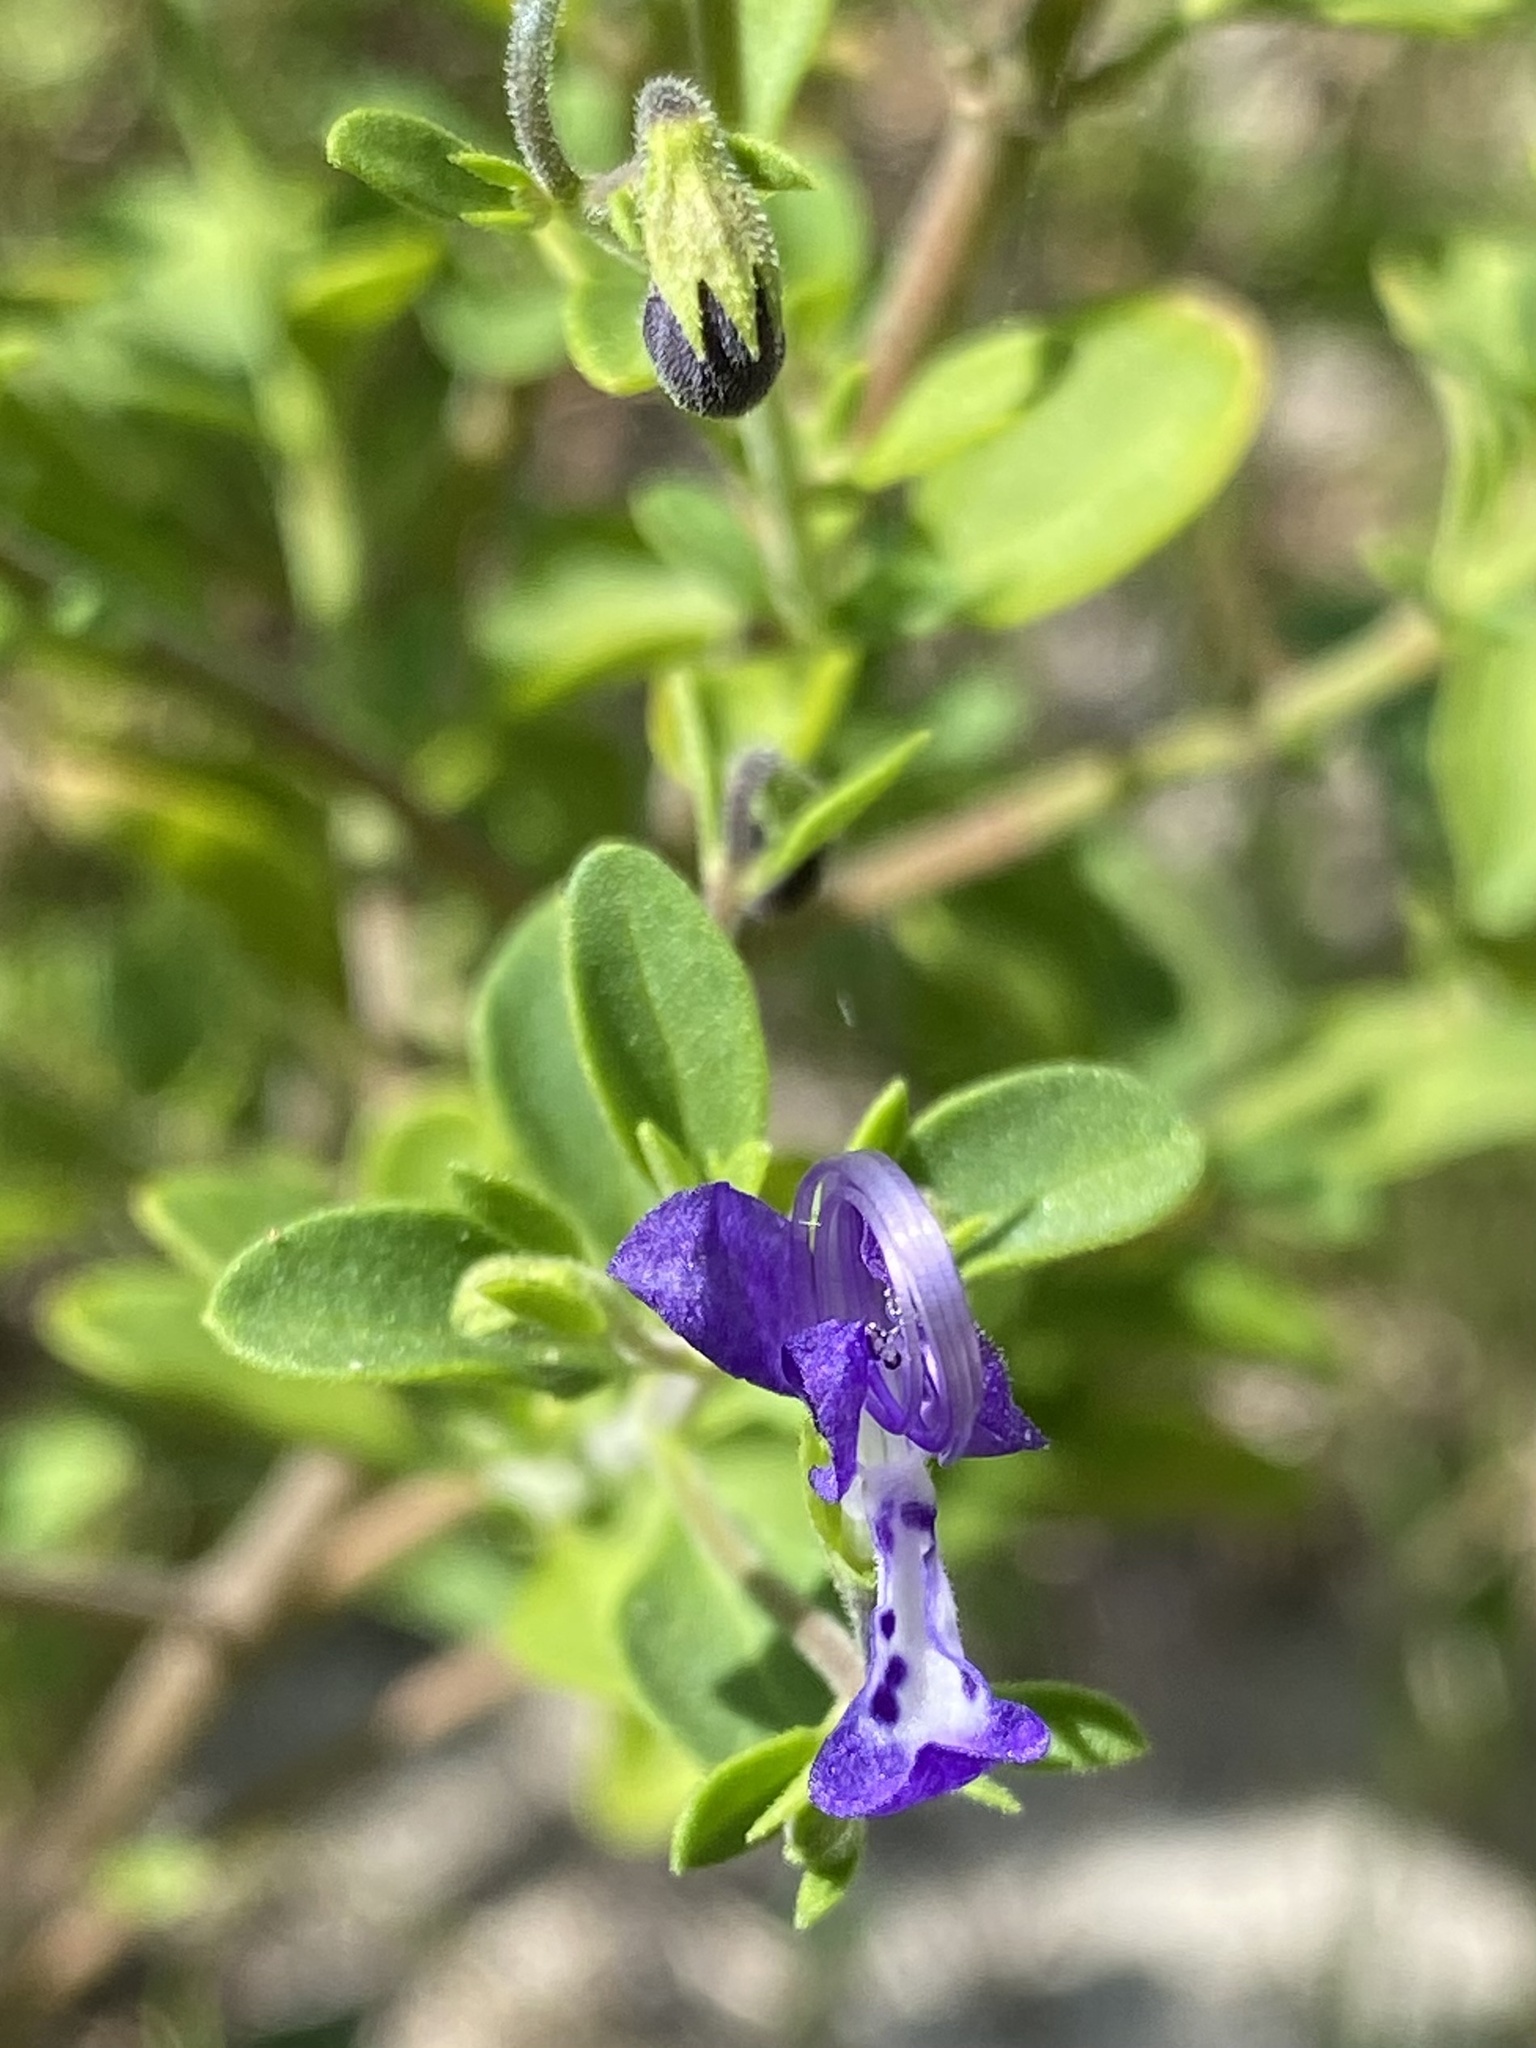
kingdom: Plantae
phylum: Tracheophyta
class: Magnoliopsida
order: Lamiales
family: Lamiaceae
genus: Trichostema
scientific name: Trichostema
